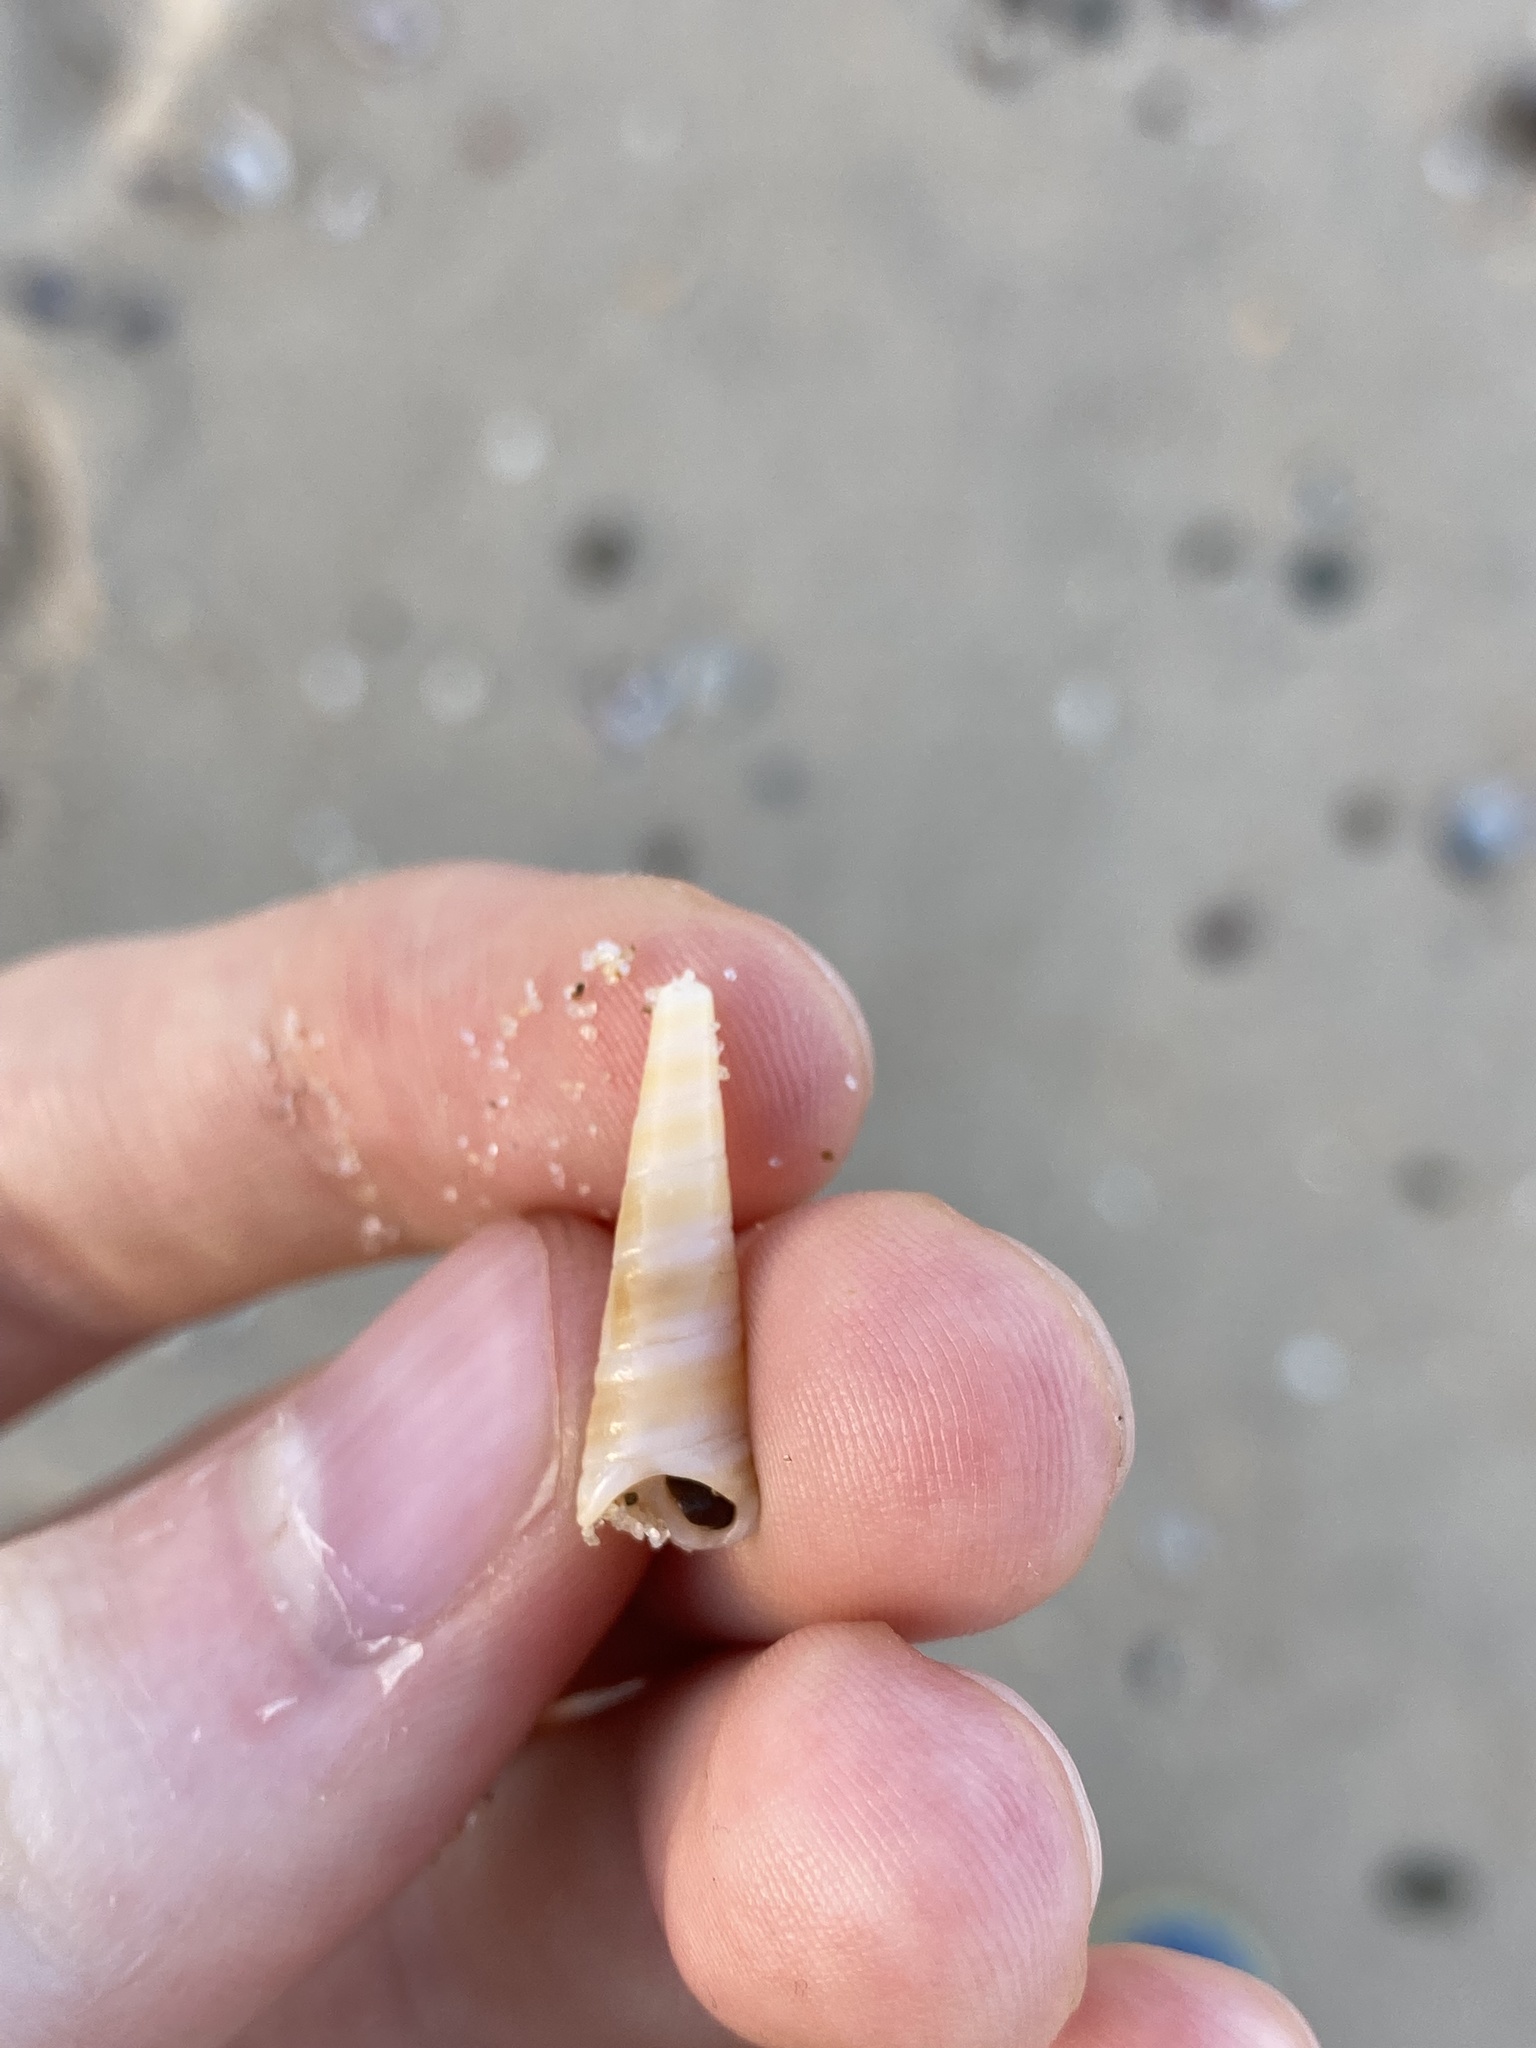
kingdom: Animalia
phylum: Mollusca
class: Gastropoda
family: Turritellidae
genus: Gazameda
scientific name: Gazameda gunnii
